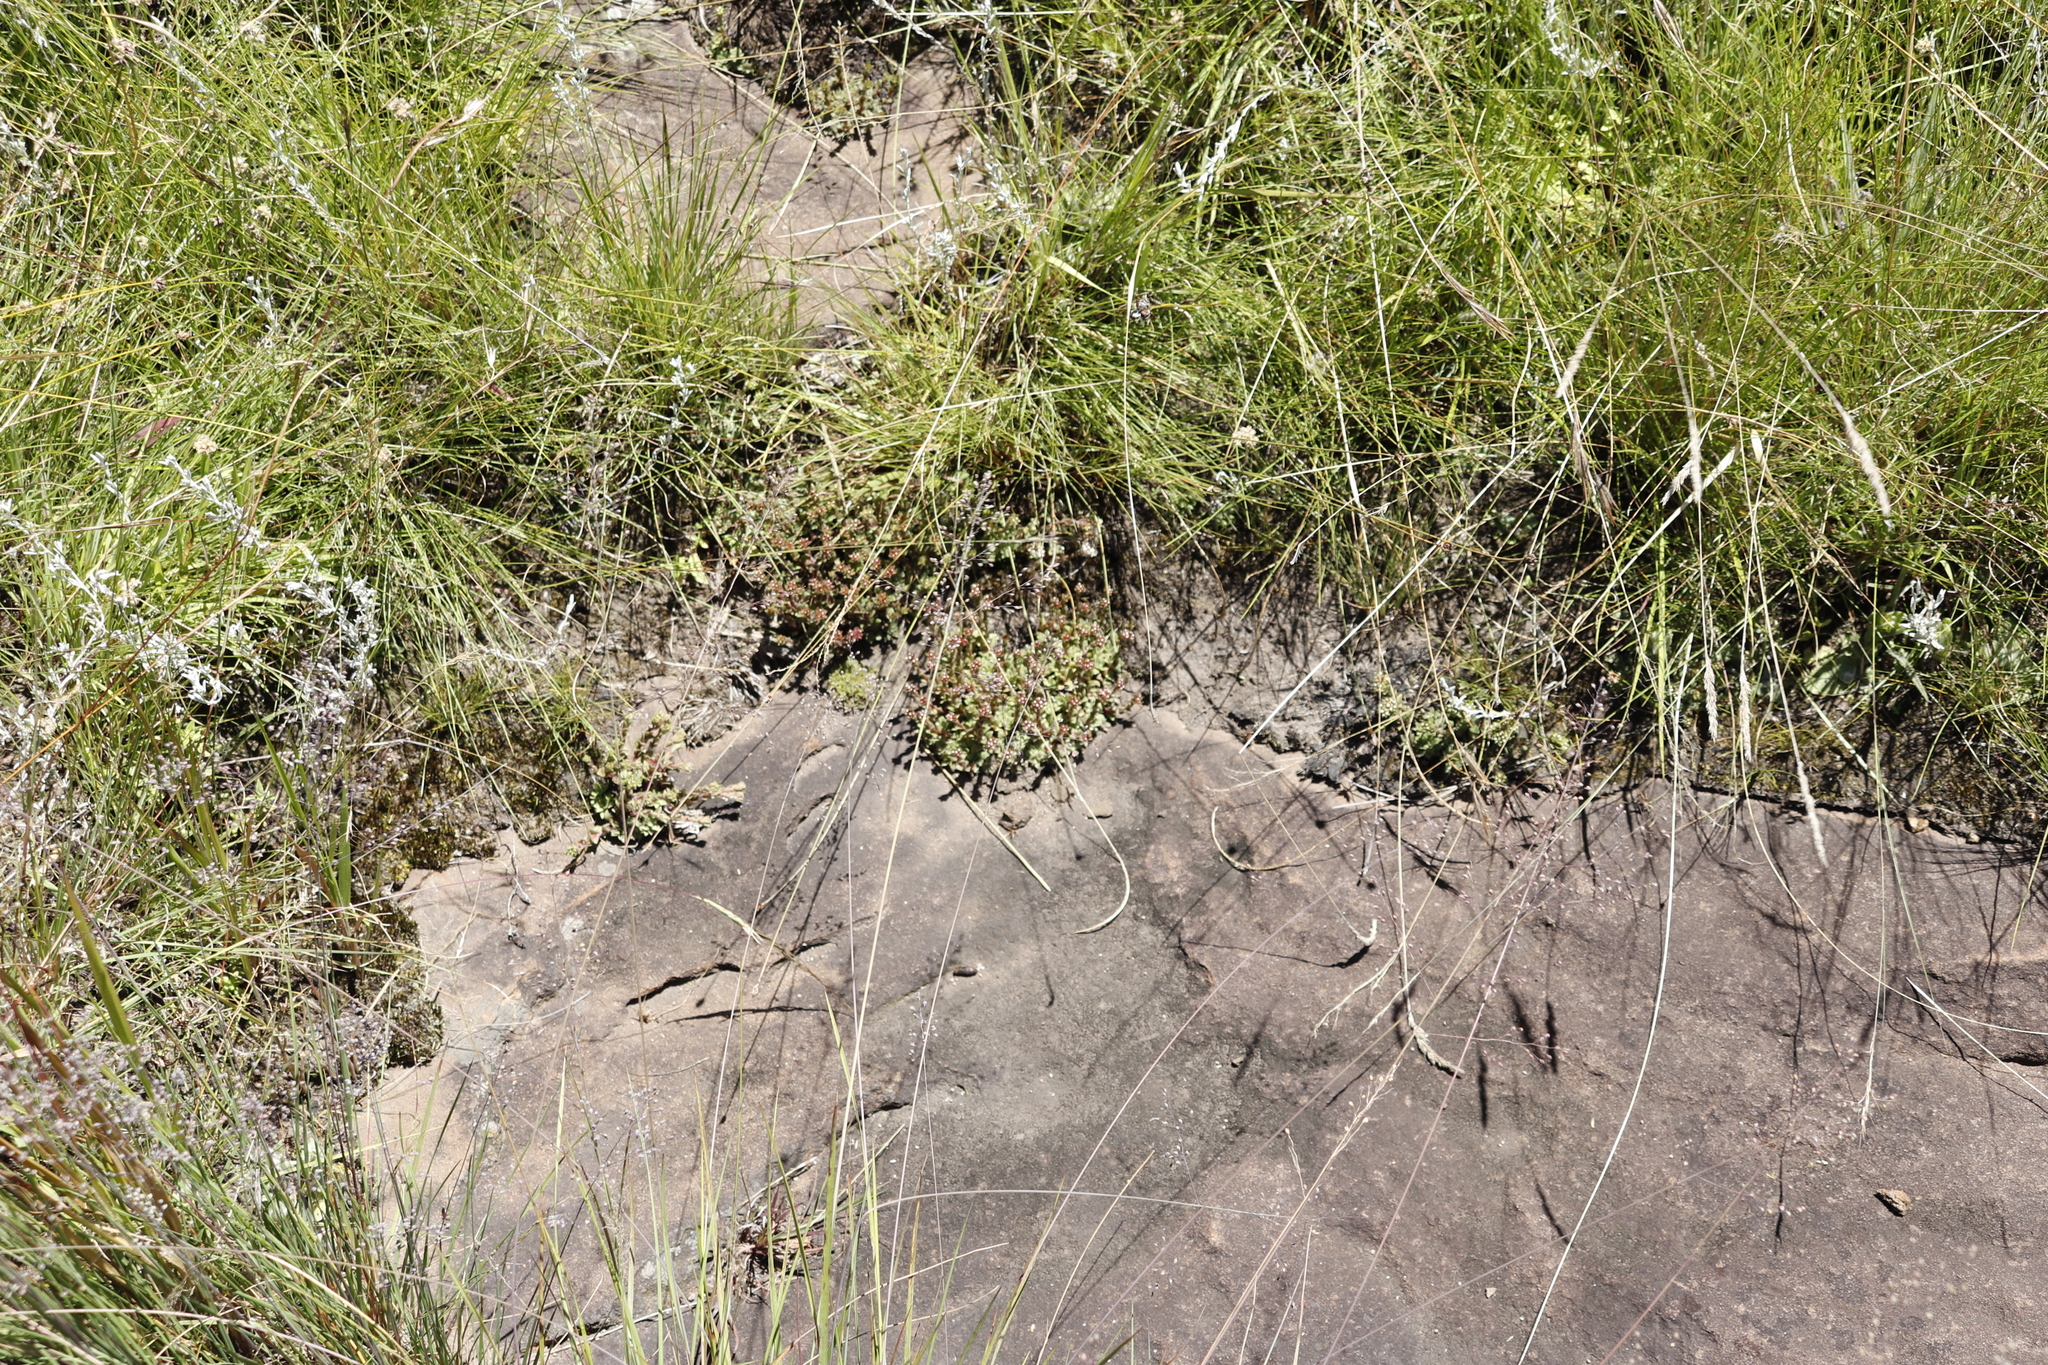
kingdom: Plantae
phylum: Tracheophyta
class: Magnoliopsida
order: Saxifragales
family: Crassulaceae
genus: Crassula
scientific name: Crassula setulosa
